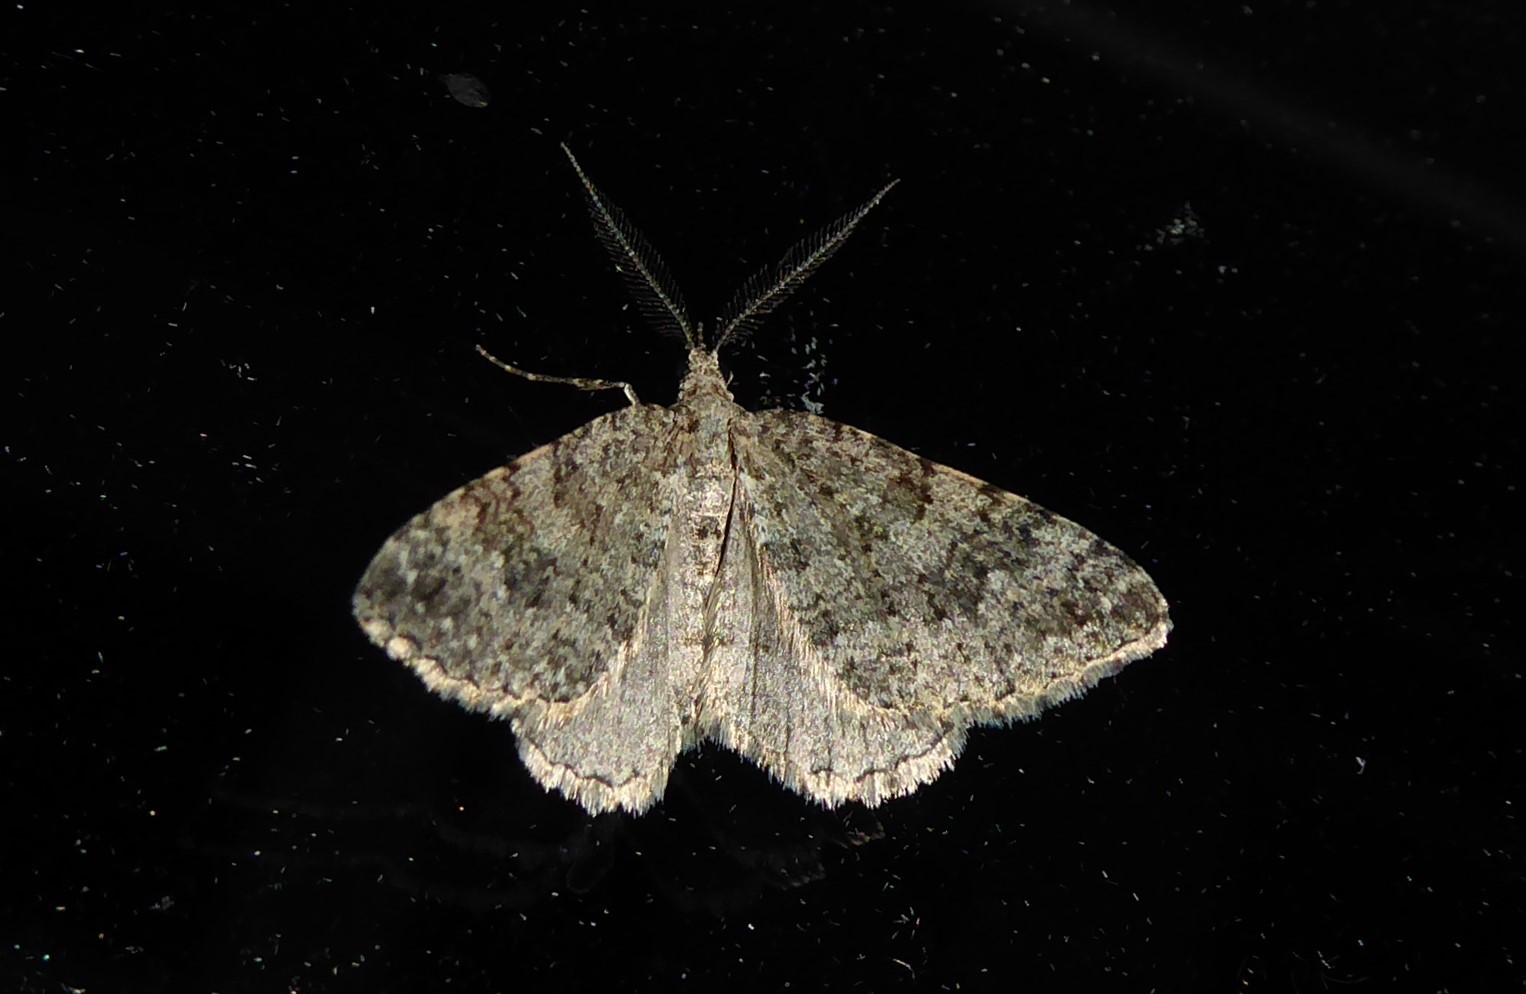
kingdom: Animalia
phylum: Arthropoda
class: Insecta
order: Lepidoptera
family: Geometridae
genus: Helastia
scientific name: Helastia corcularia
